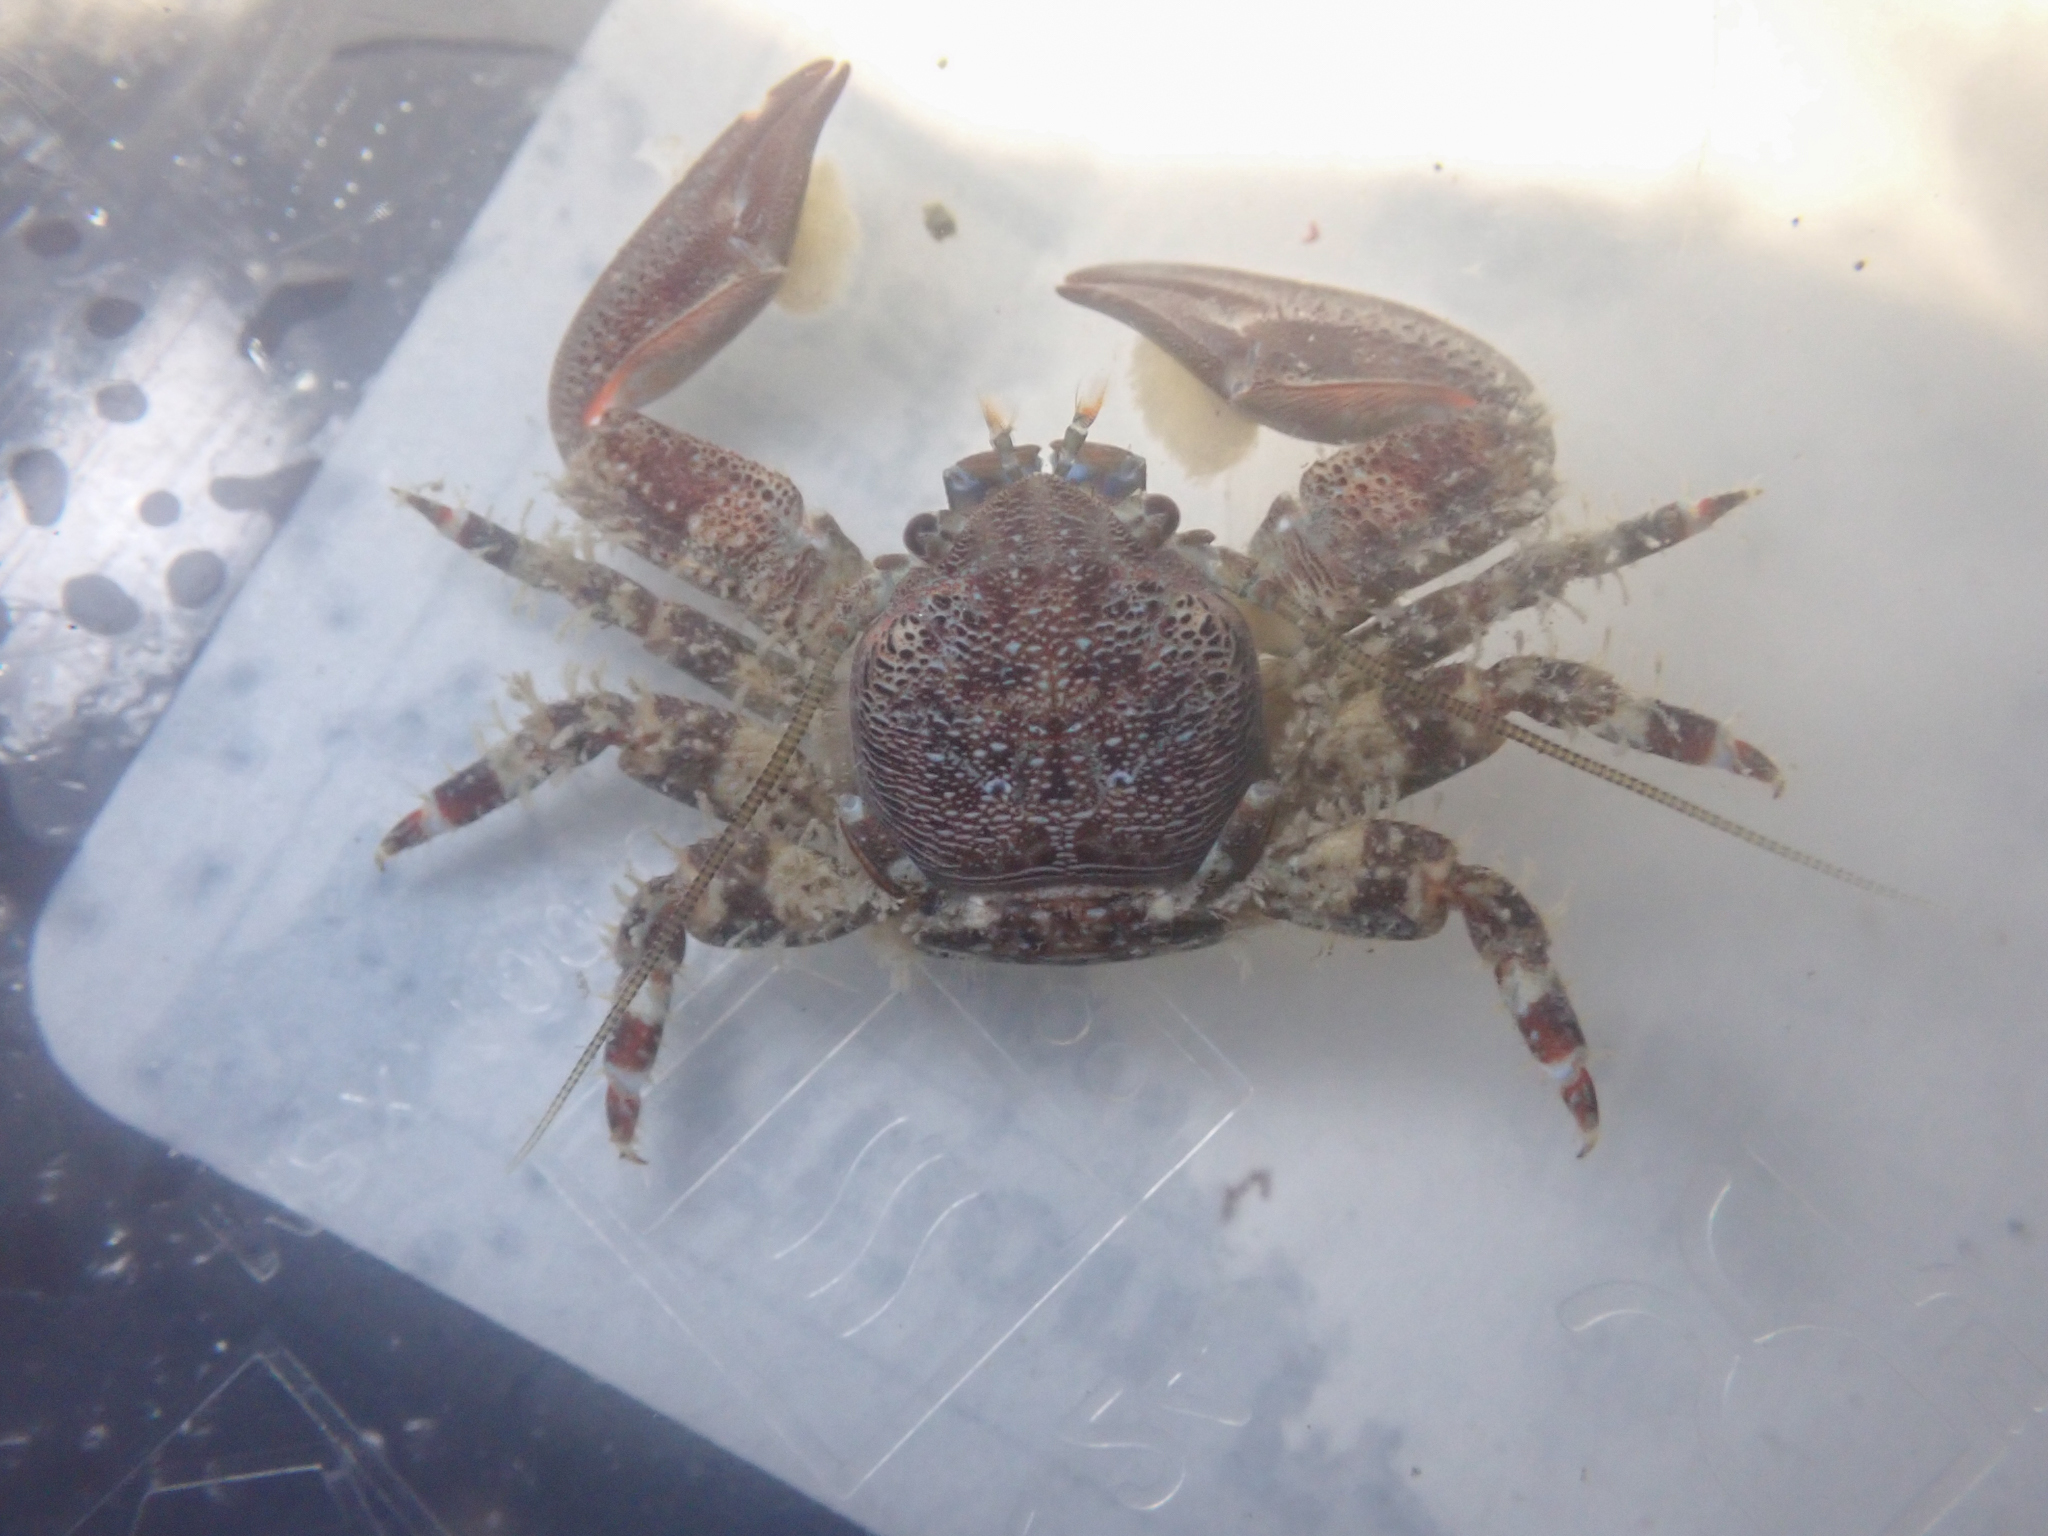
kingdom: Animalia
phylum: Arthropoda
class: Malacostraca
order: Decapoda
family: Porcellanidae
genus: Petrolisthes
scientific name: Petrolisthes eriomerus
